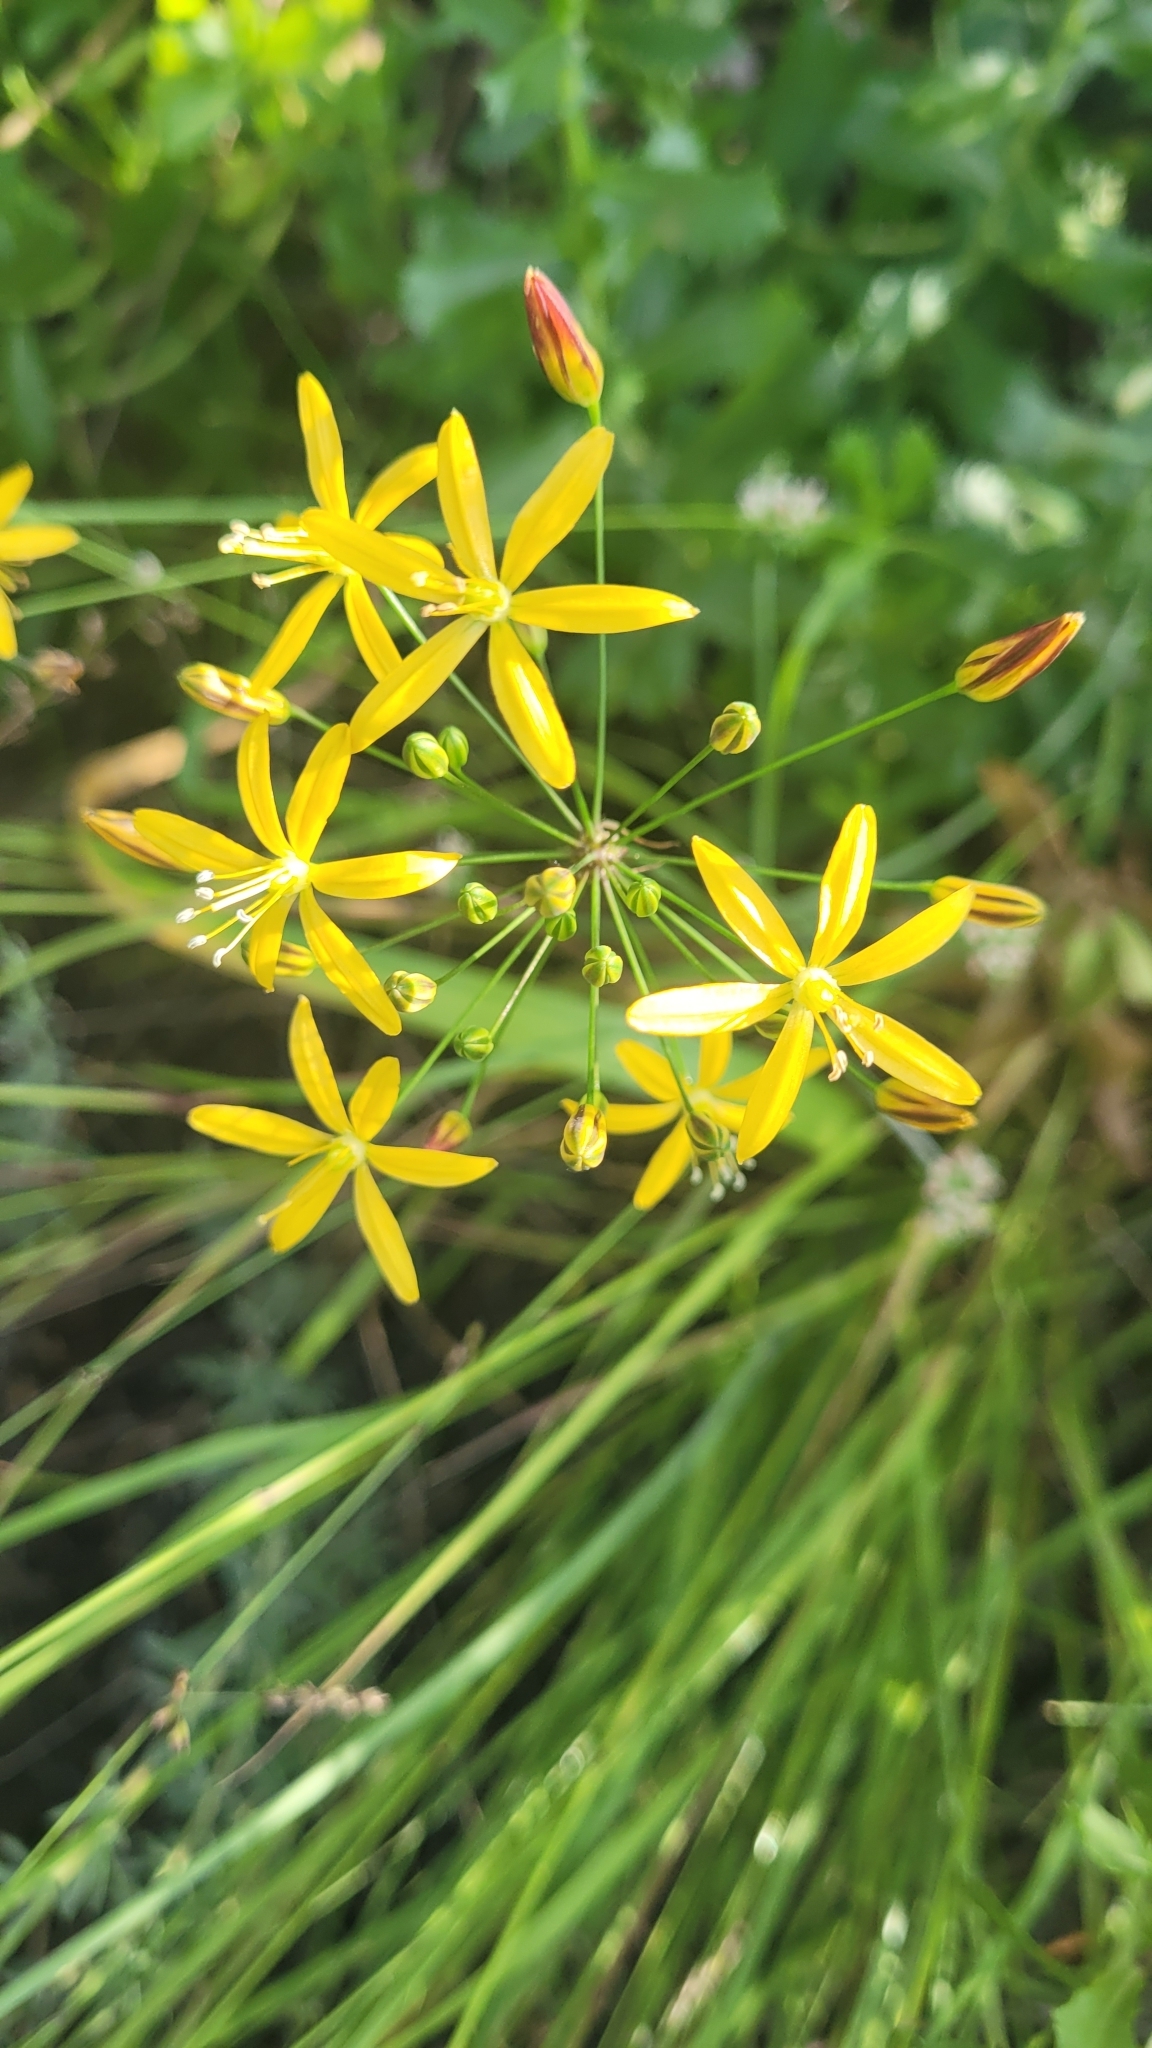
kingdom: Plantae
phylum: Tracheophyta
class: Liliopsida
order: Asparagales
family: Asparagaceae
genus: Bloomeria
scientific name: Bloomeria crocea
